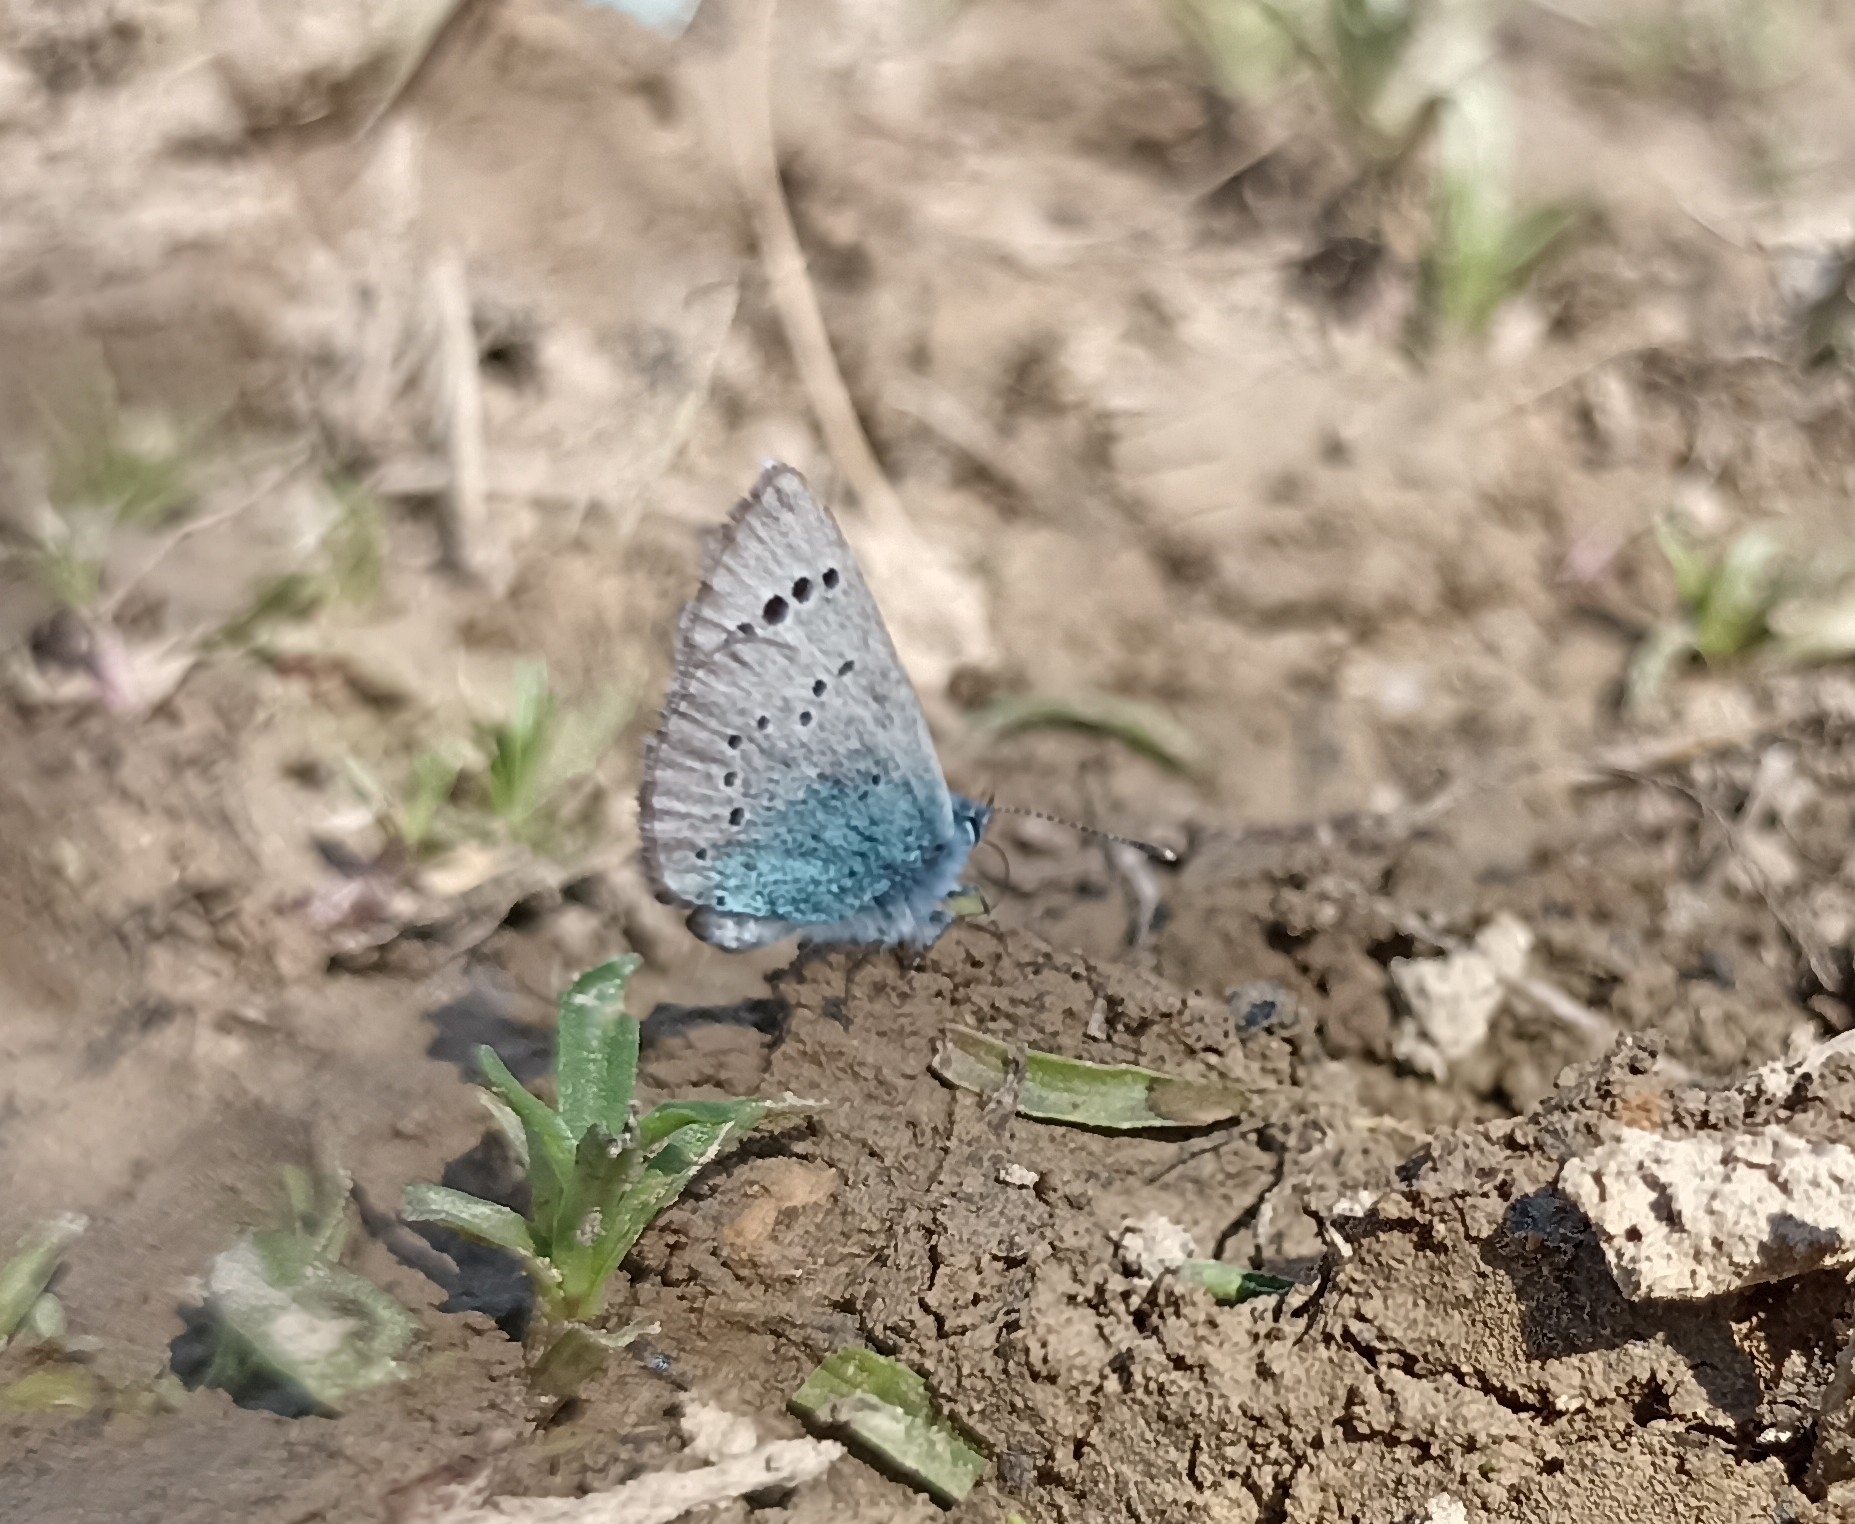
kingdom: Animalia
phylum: Arthropoda
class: Insecta
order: Lepidoptera
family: Lycaenidae
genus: Glaucopsyche
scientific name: Glaucopsyche alexis
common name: Green-underside blue
